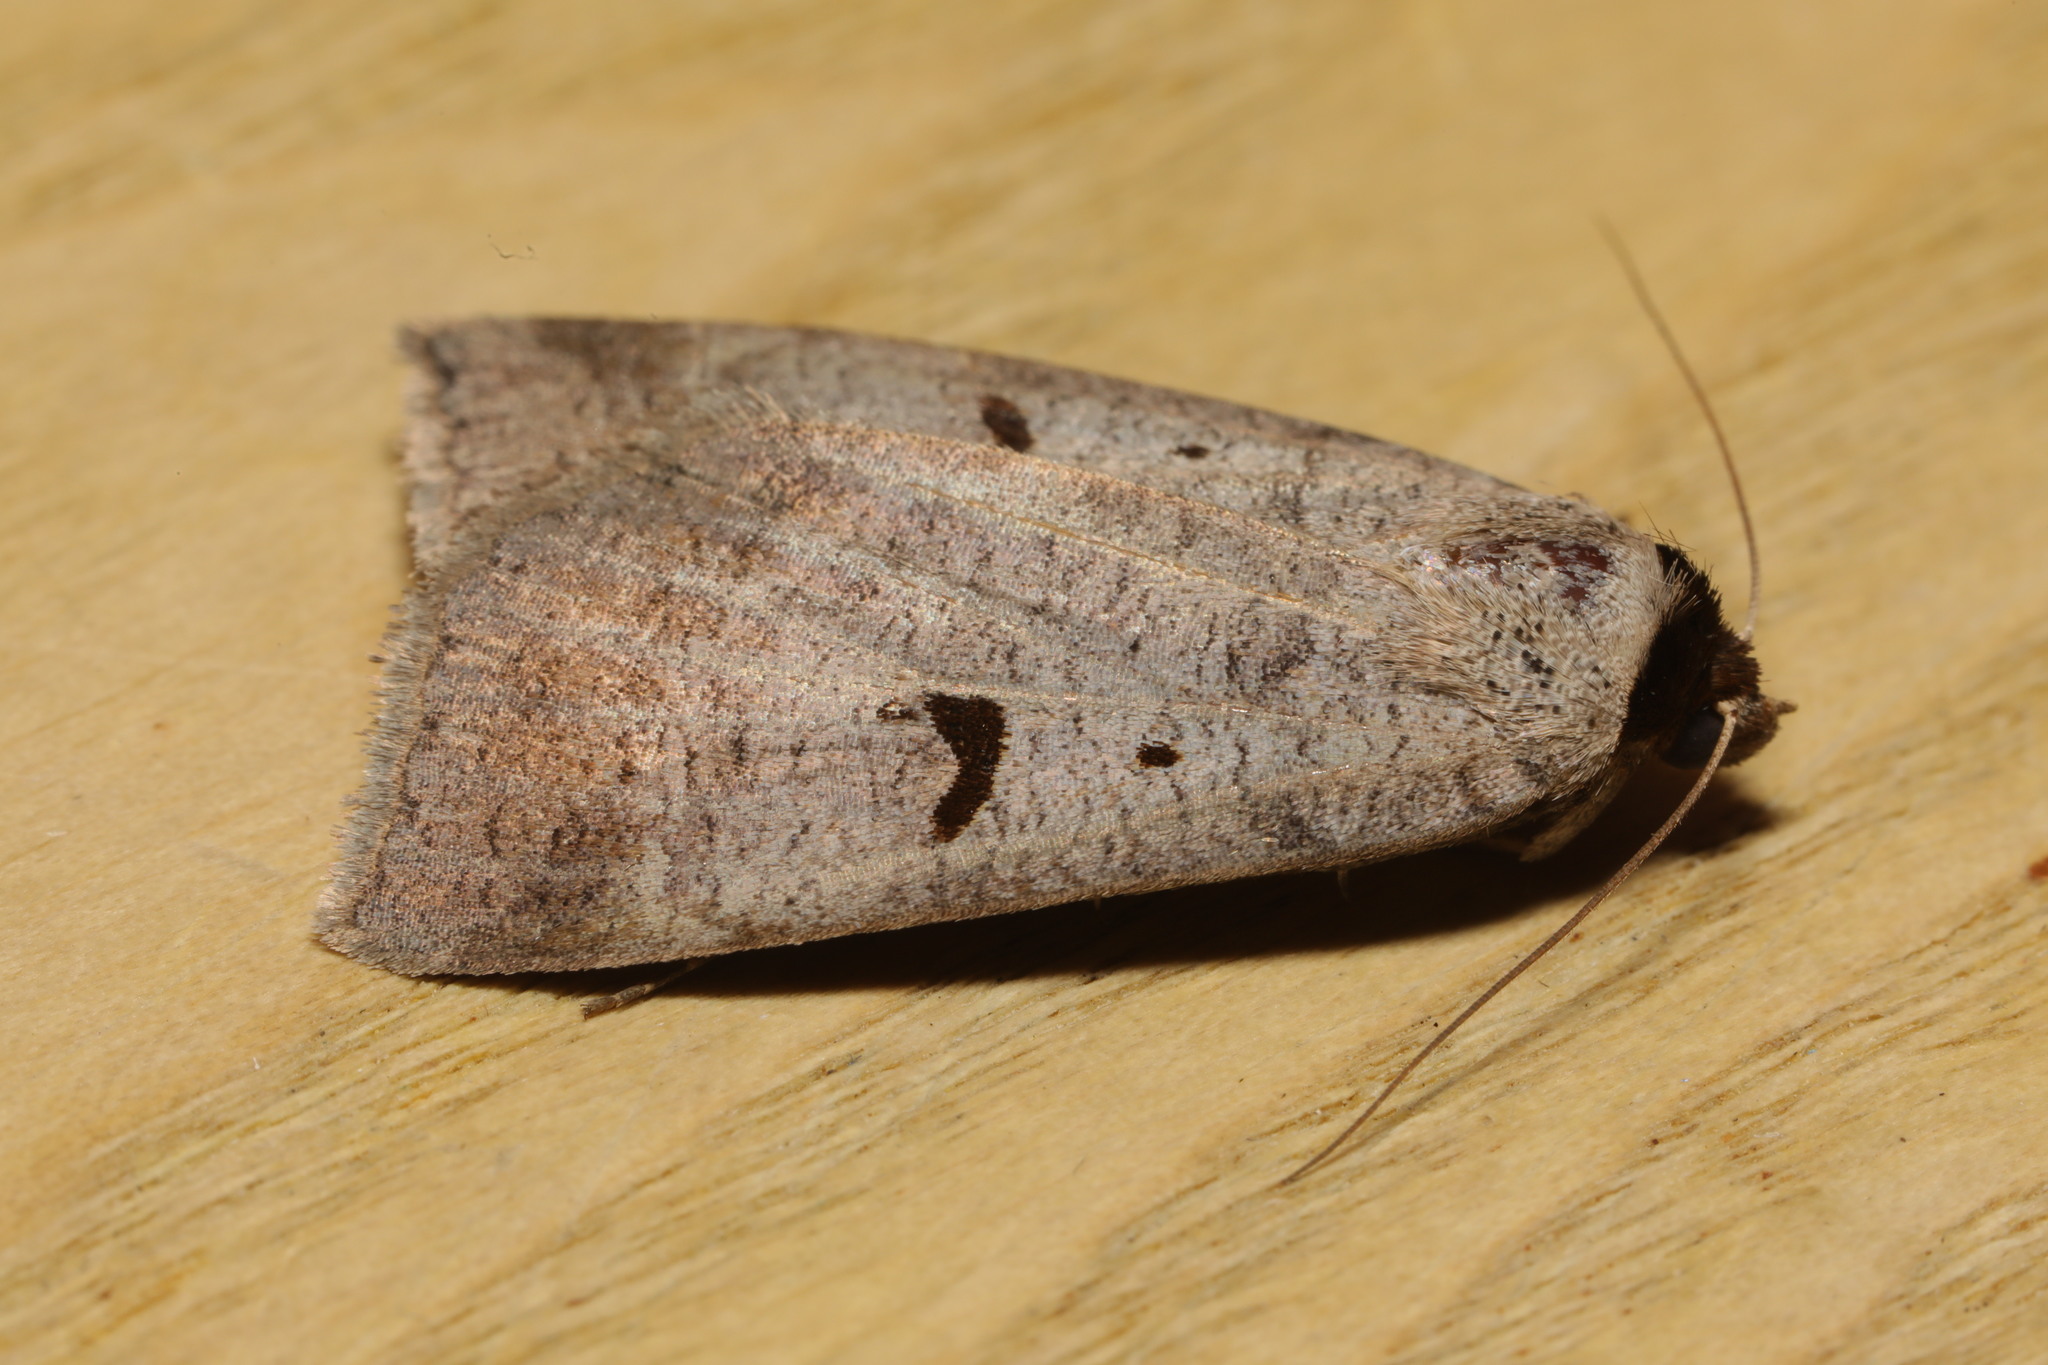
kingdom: Animalia
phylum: Arthropoda
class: Insecta
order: Lepidoptera
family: Erebidae
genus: Lygephila
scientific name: Lygephila pastinum
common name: Blackneck
